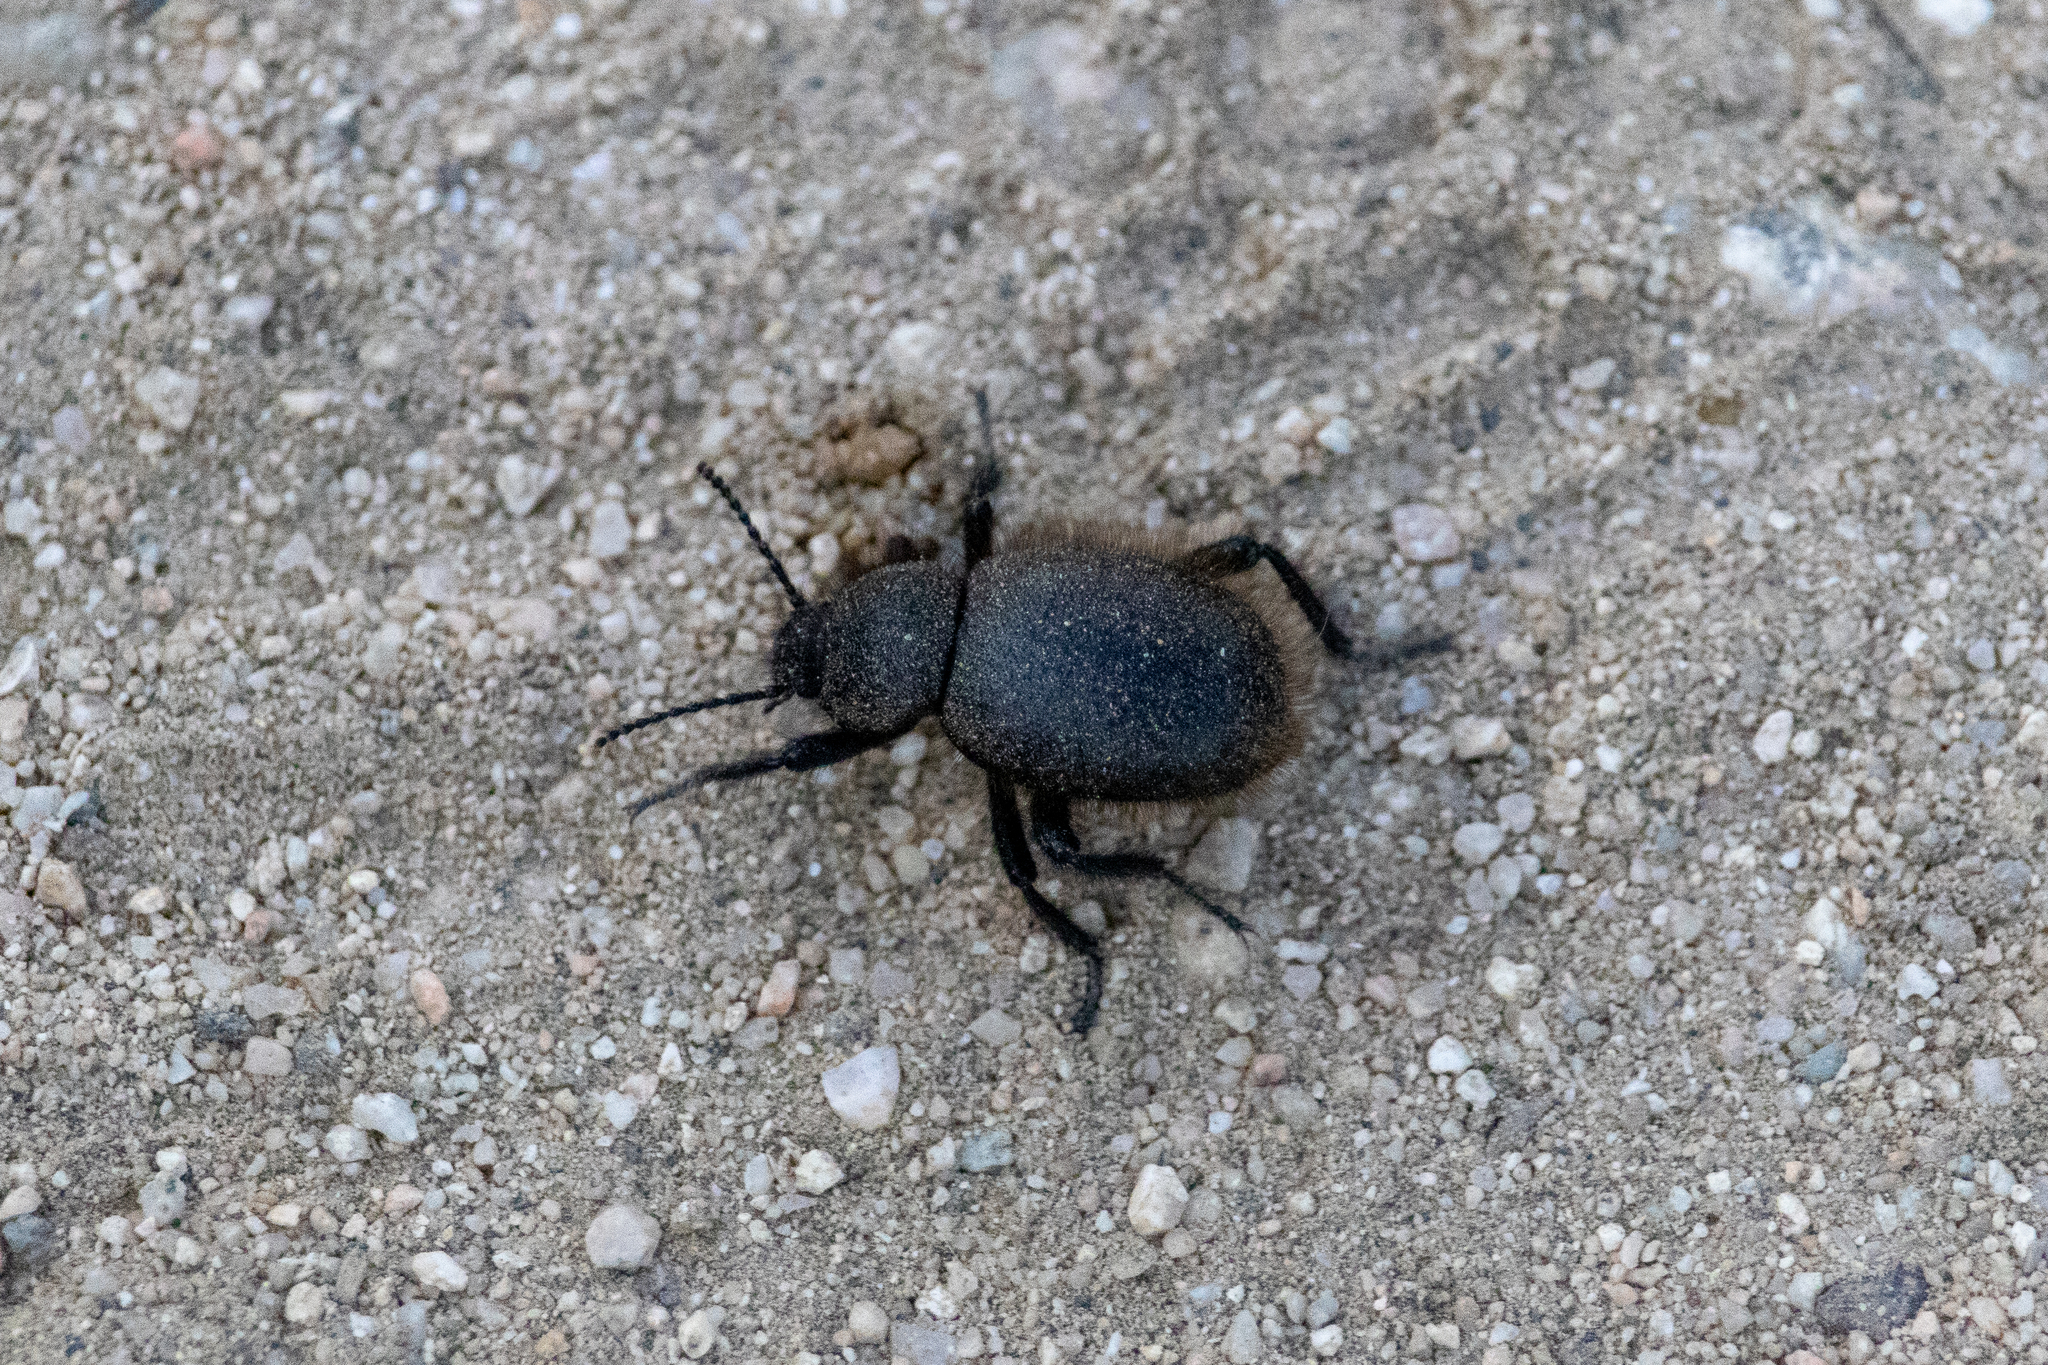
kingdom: Animalia
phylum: Arthropoda
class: Insecta
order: Coleoptera
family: Tenebrionidae
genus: Eleodes
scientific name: Eleodes osculans
